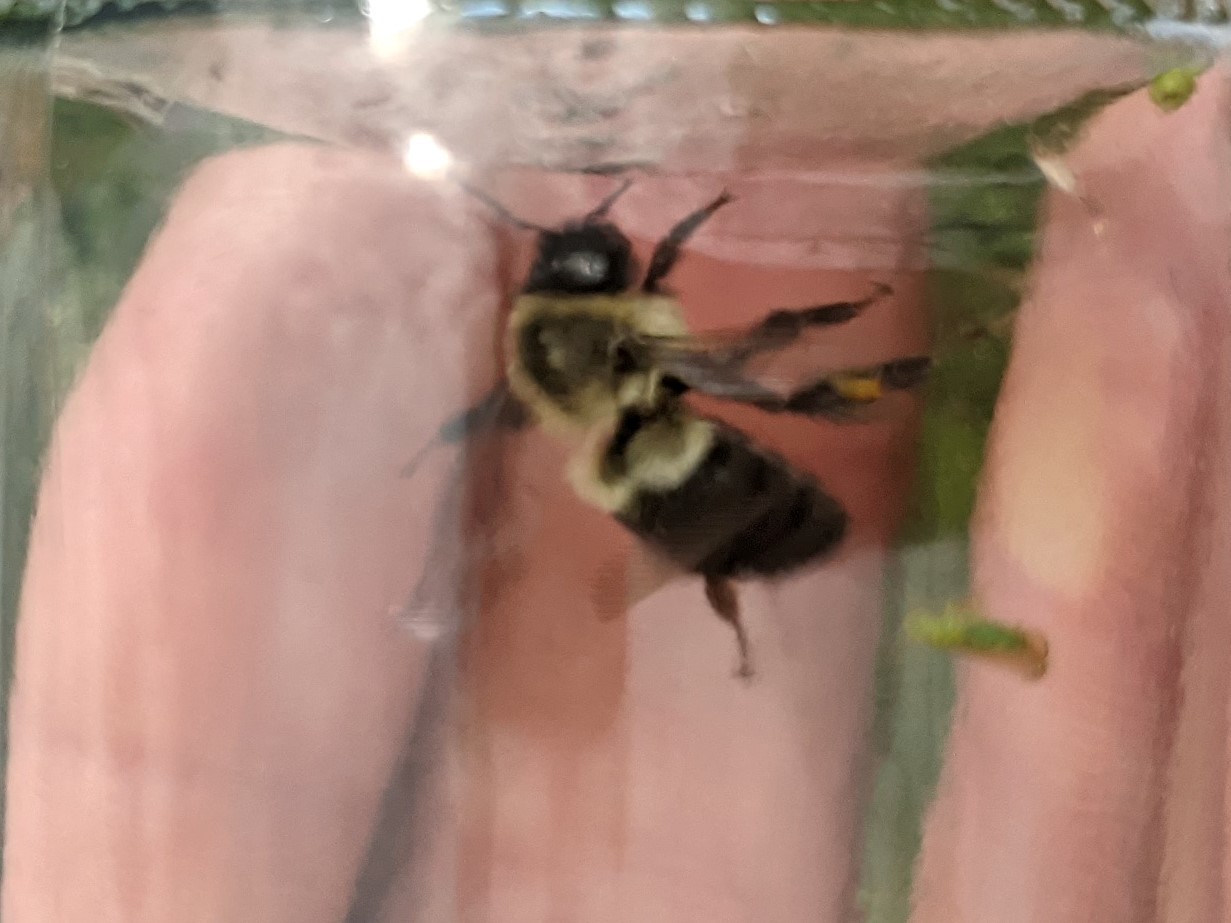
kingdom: Animalia
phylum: Arthropoda
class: Insecta
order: Hymenoptera
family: Apidae
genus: Bombus
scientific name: Bombus impatiens
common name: Common eastern bumble bee
